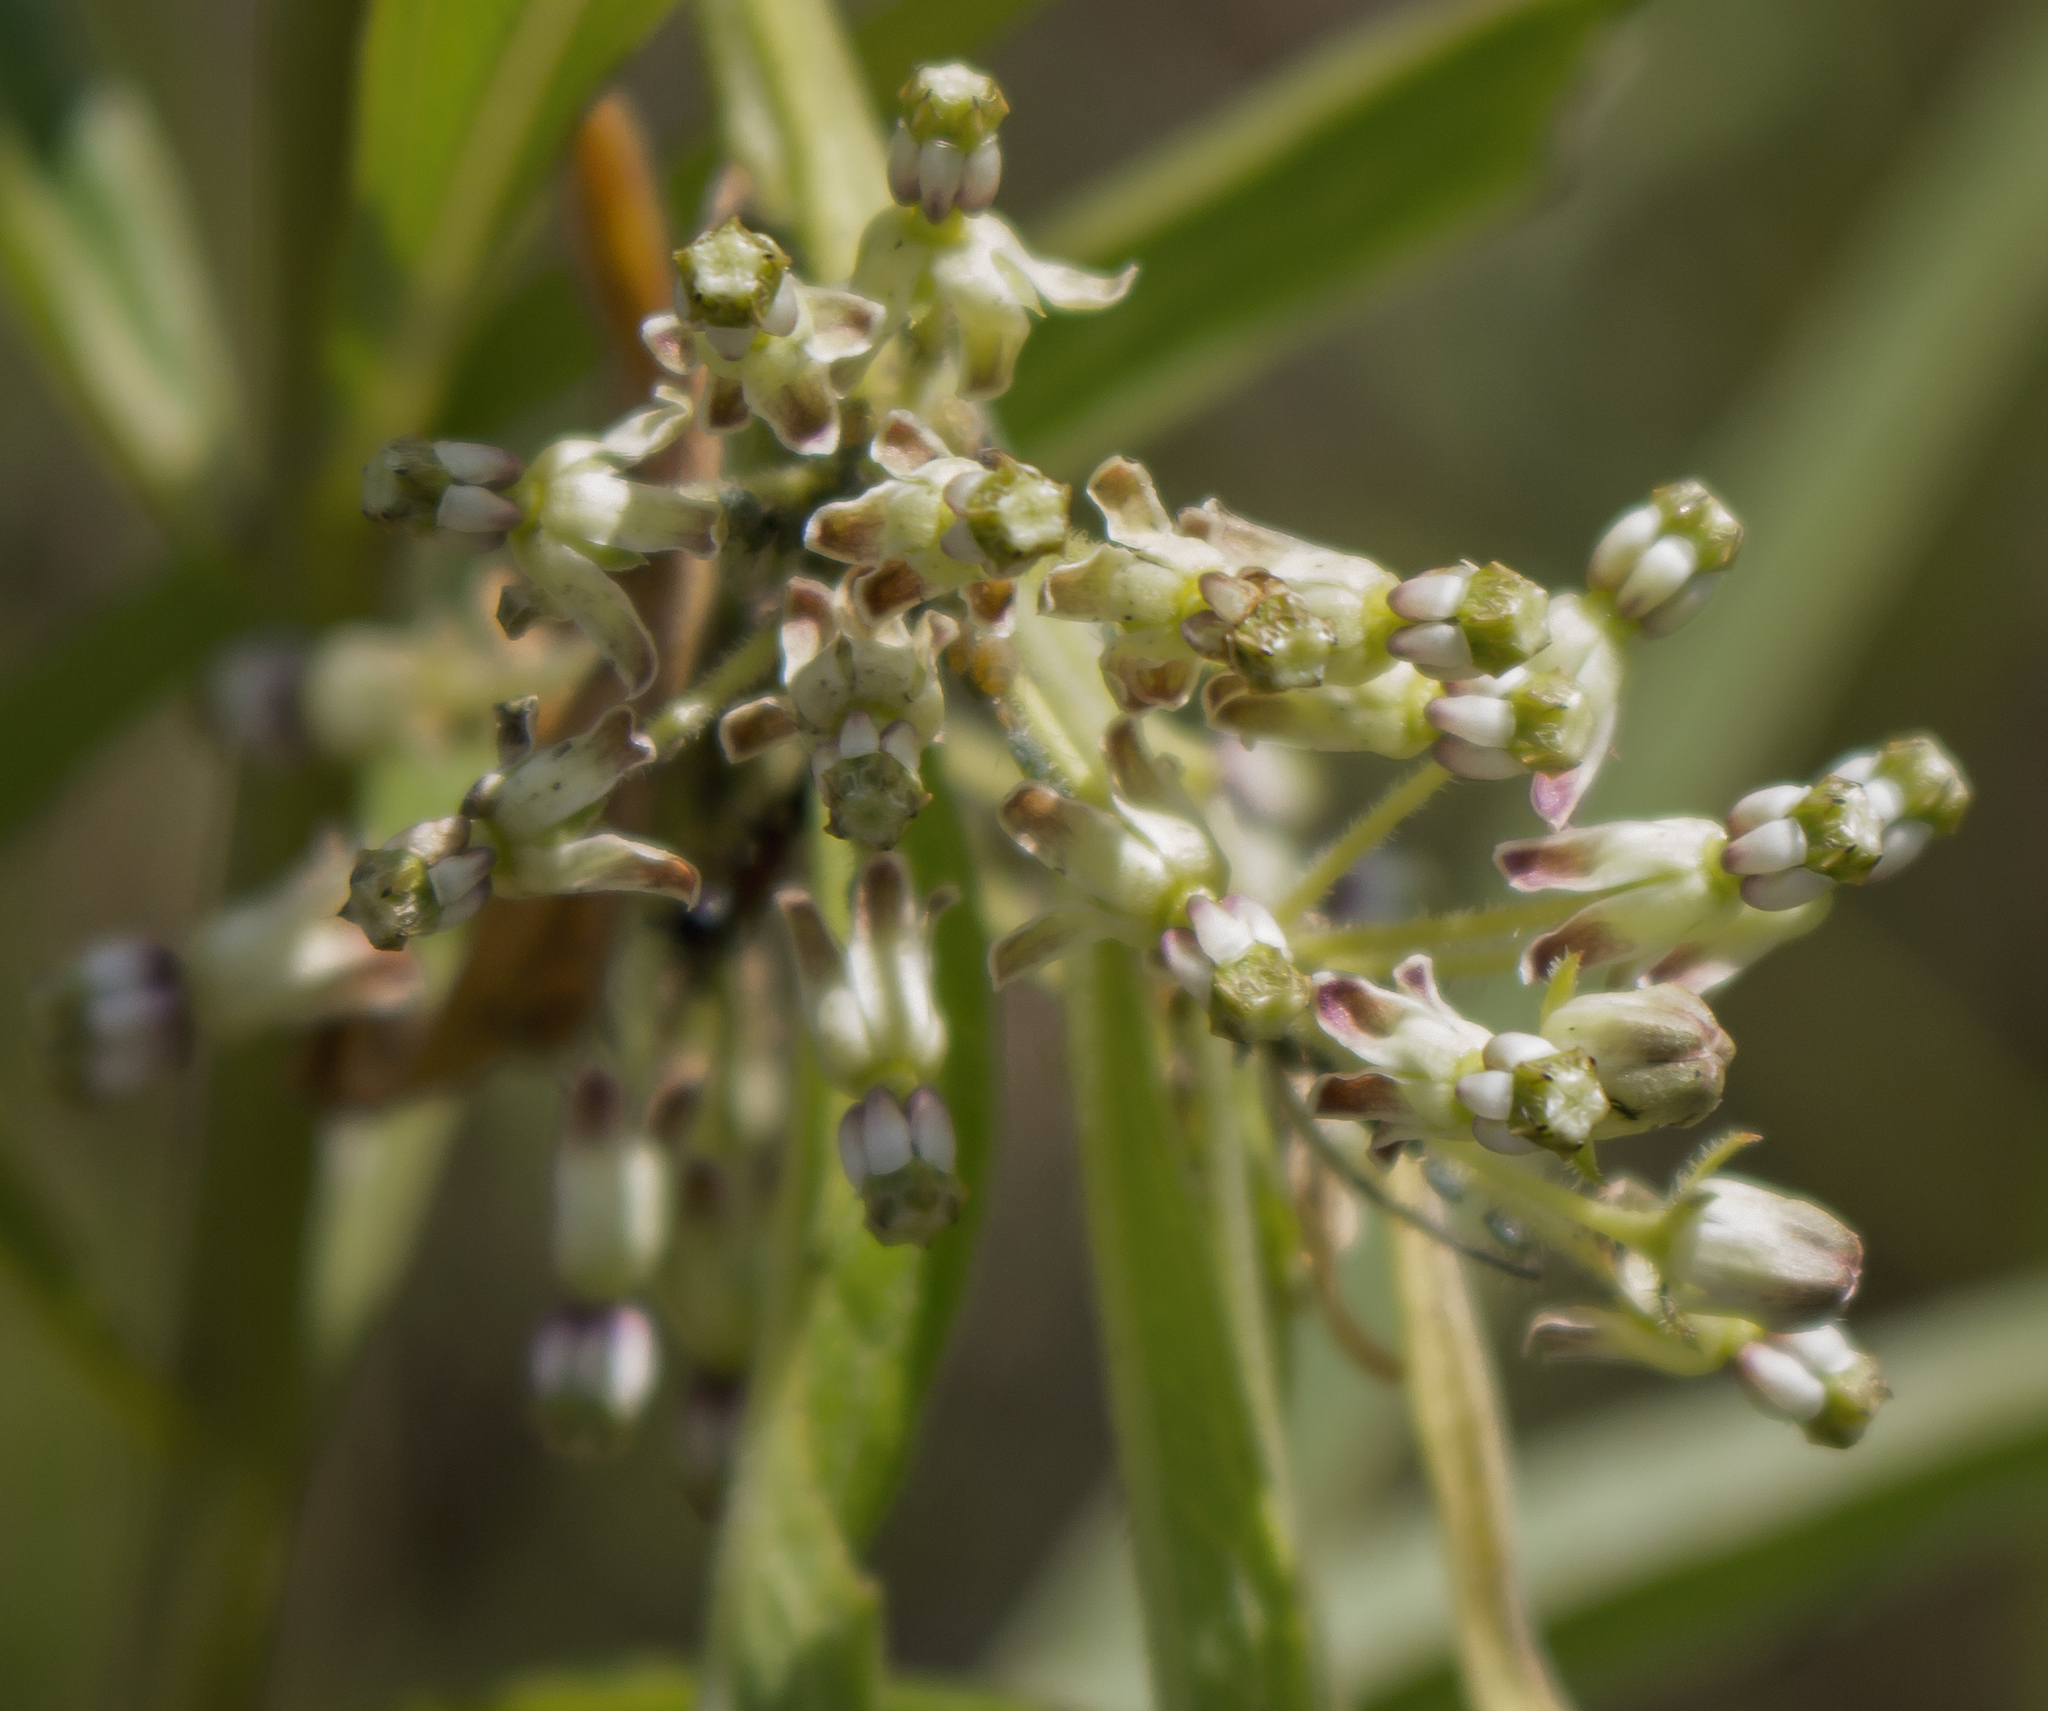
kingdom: Plantae
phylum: Tracheophyta
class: Magnoliopsida
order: Gentianales
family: Apocynaceae
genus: Asclepias
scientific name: Asclepias hirtella
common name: Prairie milkweed
